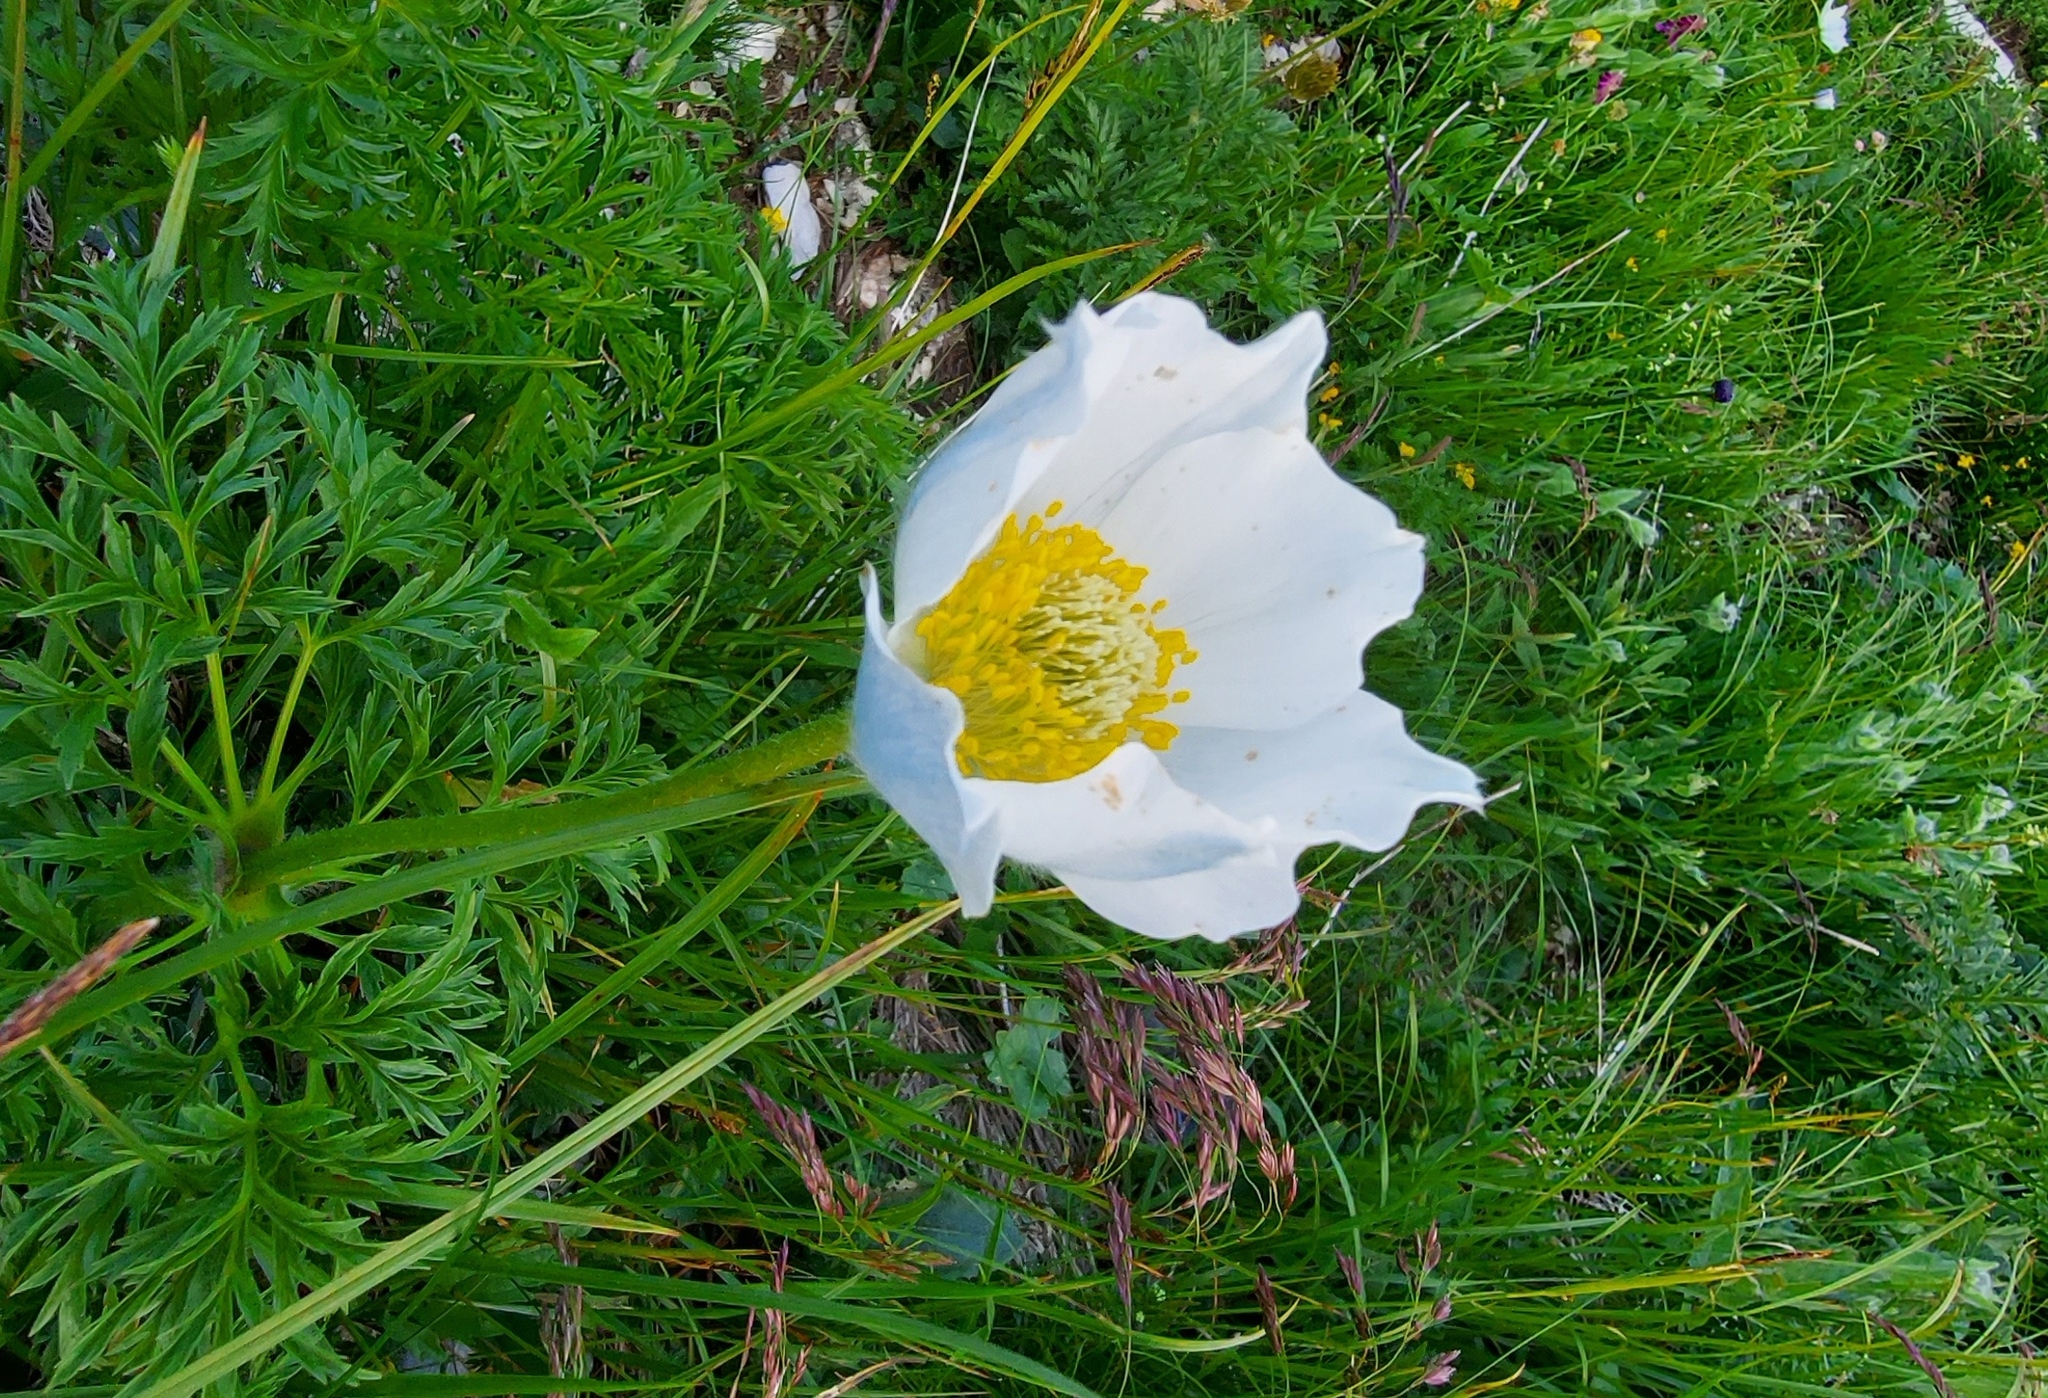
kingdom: Plantae
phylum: Tracheophyta
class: Magnoliopsida
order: Ranunculales
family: Ranunculaceae
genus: Pulsatilla
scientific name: Pulsatilla alpina
